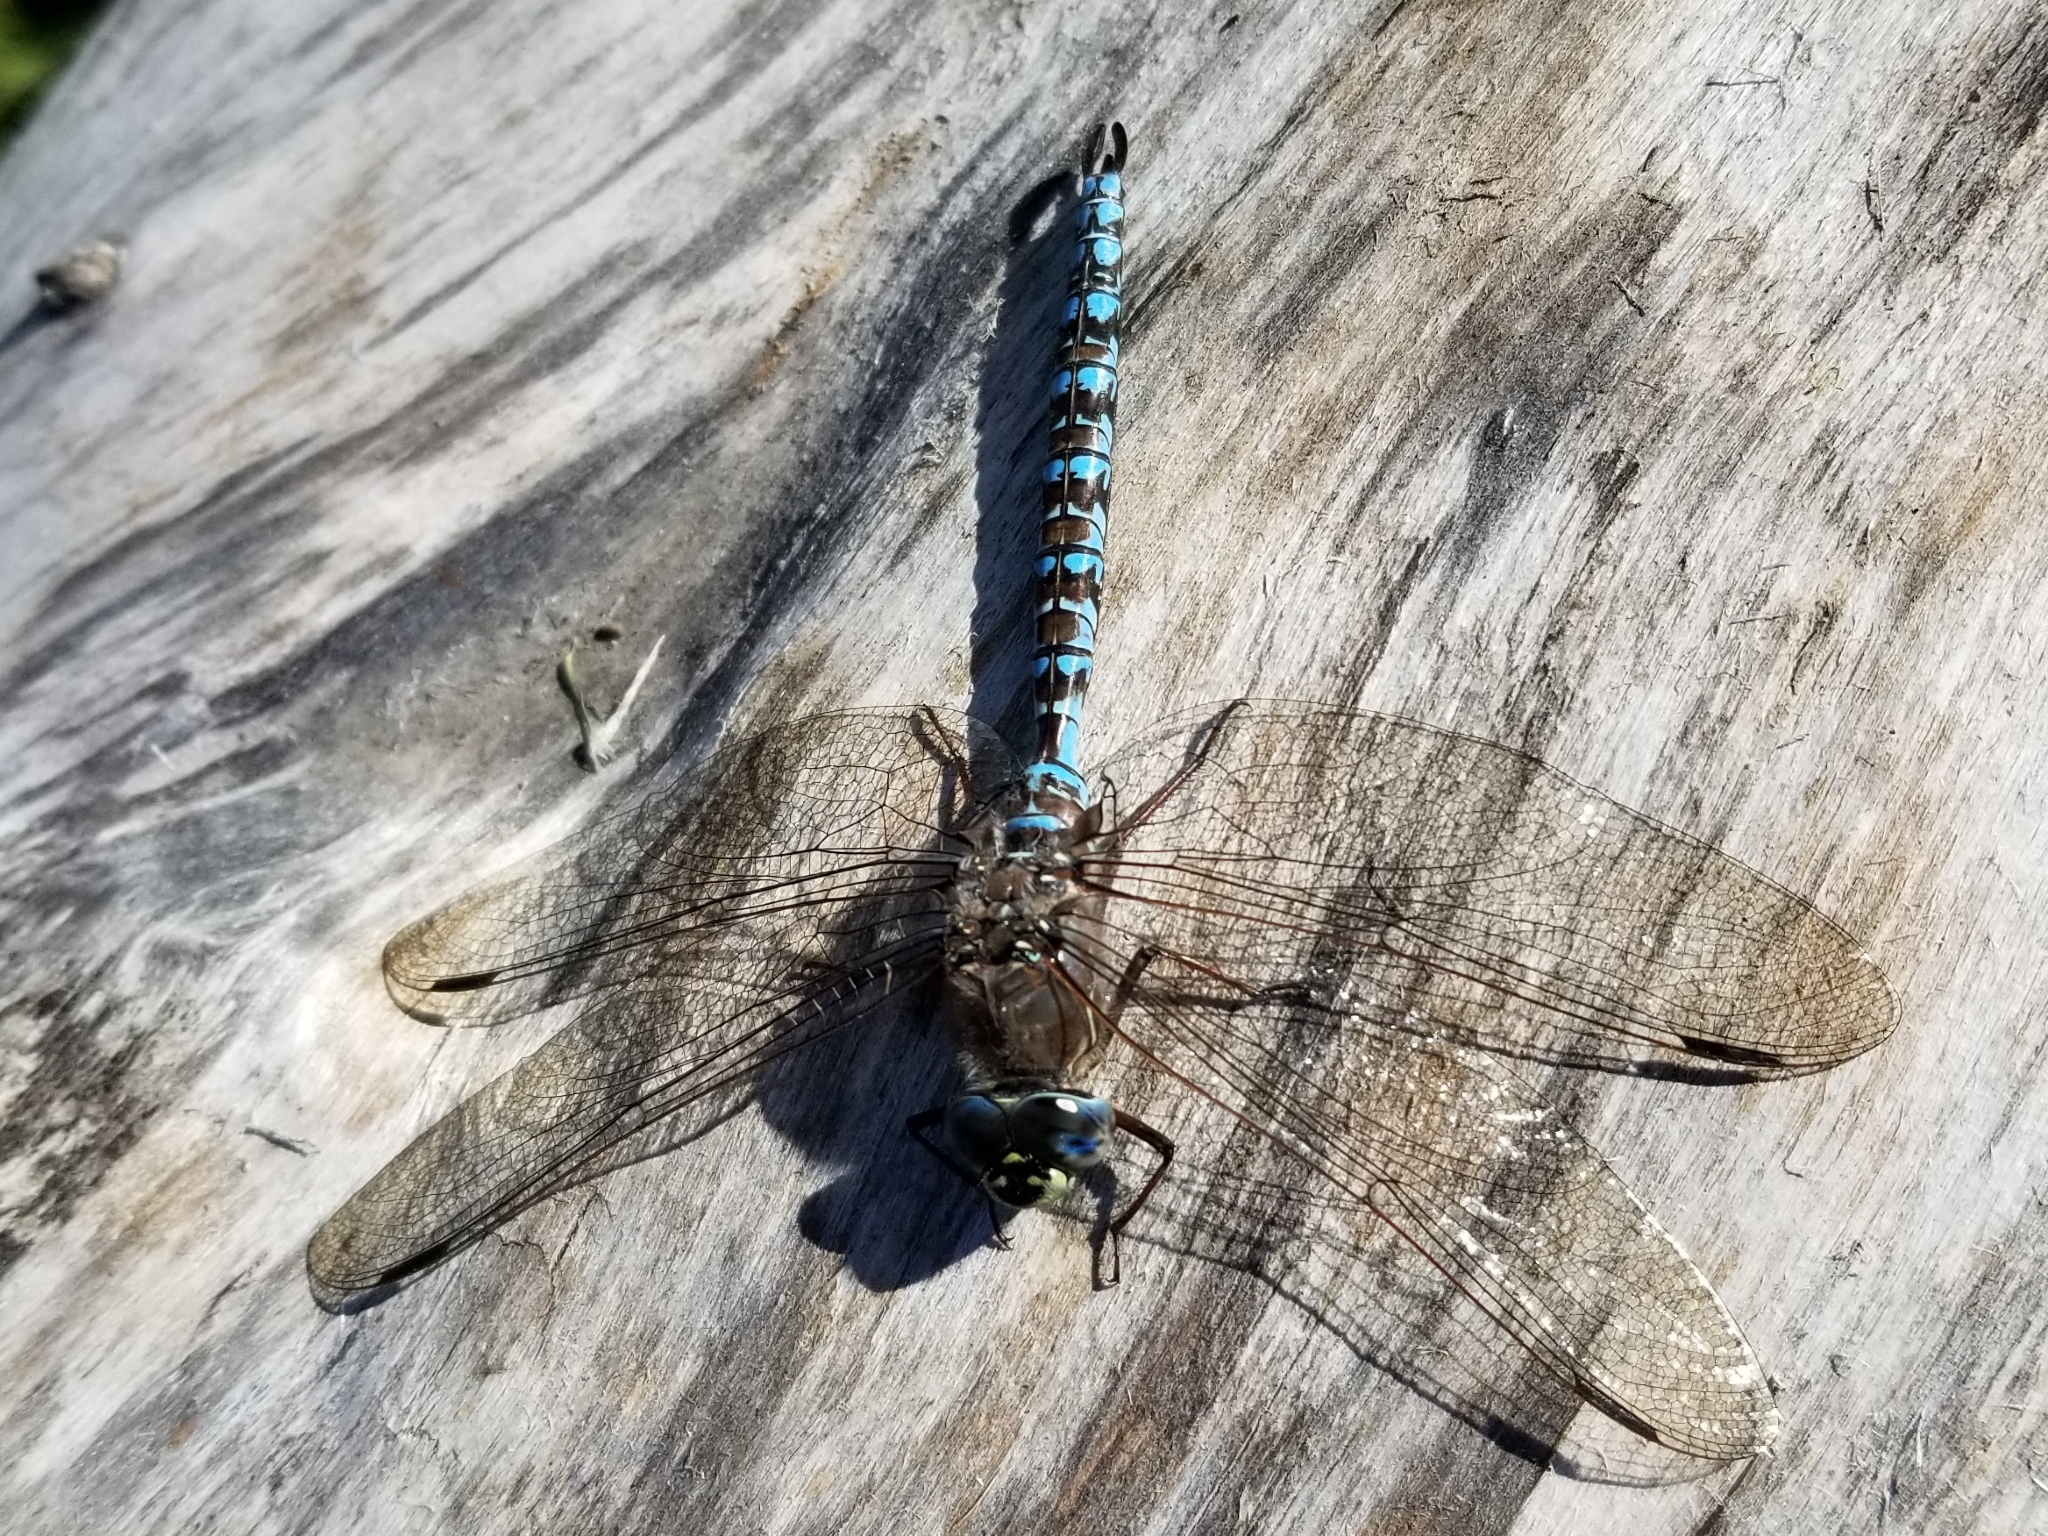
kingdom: Animalia
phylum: Arthropoda
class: Insecta
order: Odonata
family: Aeshnidae
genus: Aeshna
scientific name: Aeshna sitchensis
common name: Zigzag darner
